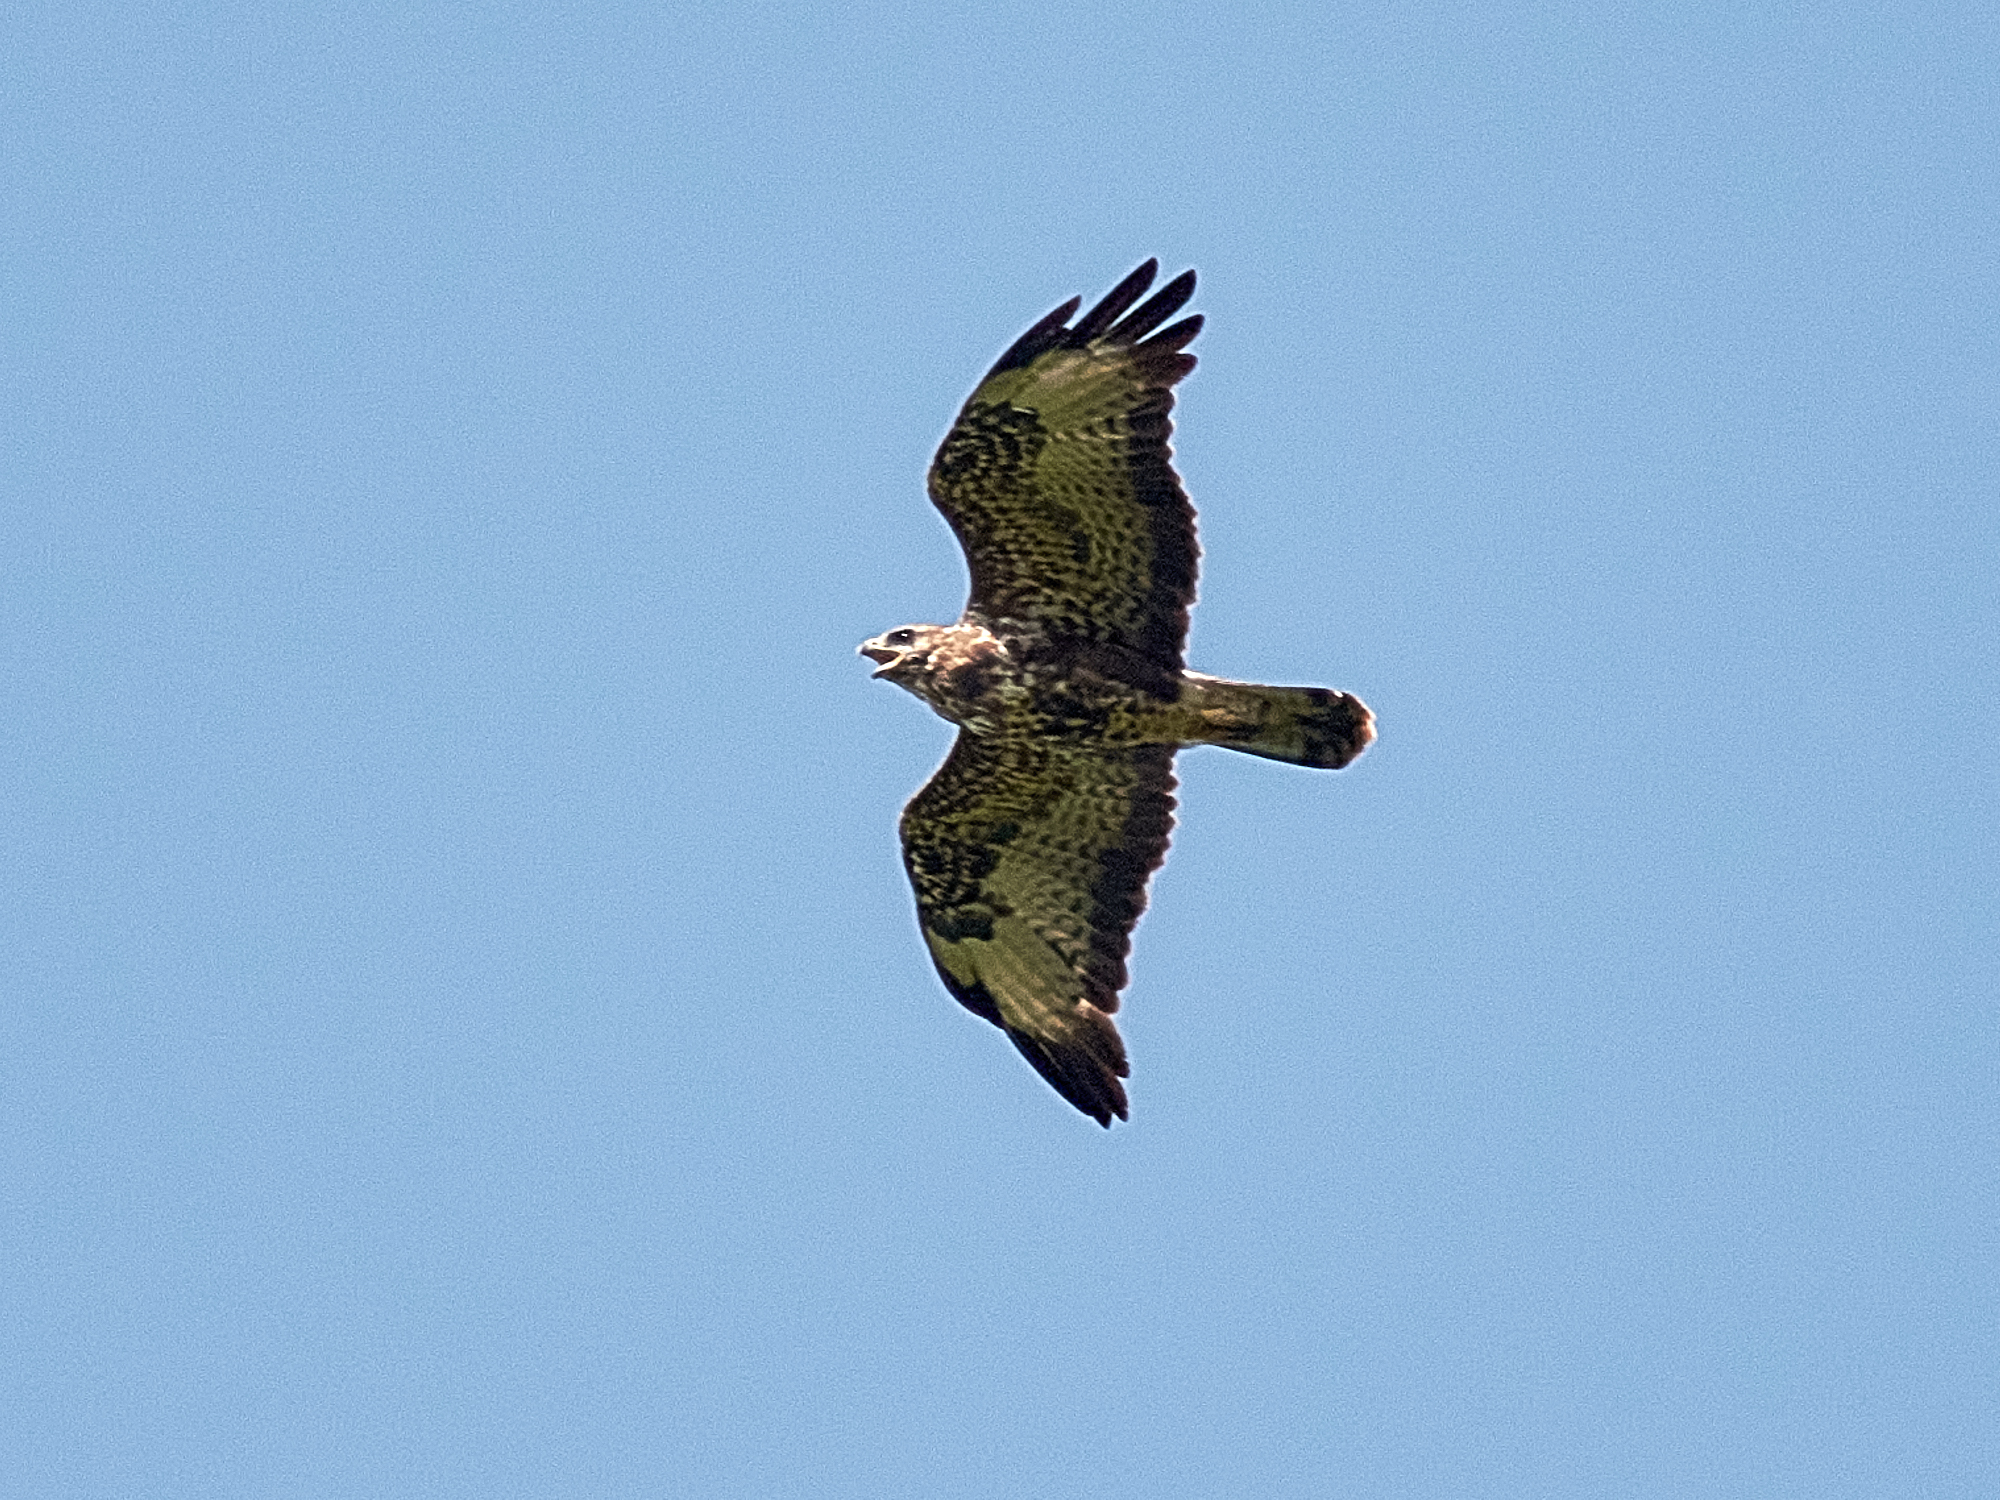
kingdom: Animalia
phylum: Chordata
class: Aves
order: Accipitriformes
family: Accipitridae
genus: Buteo
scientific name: Buteo buteo
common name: Common buzzard
